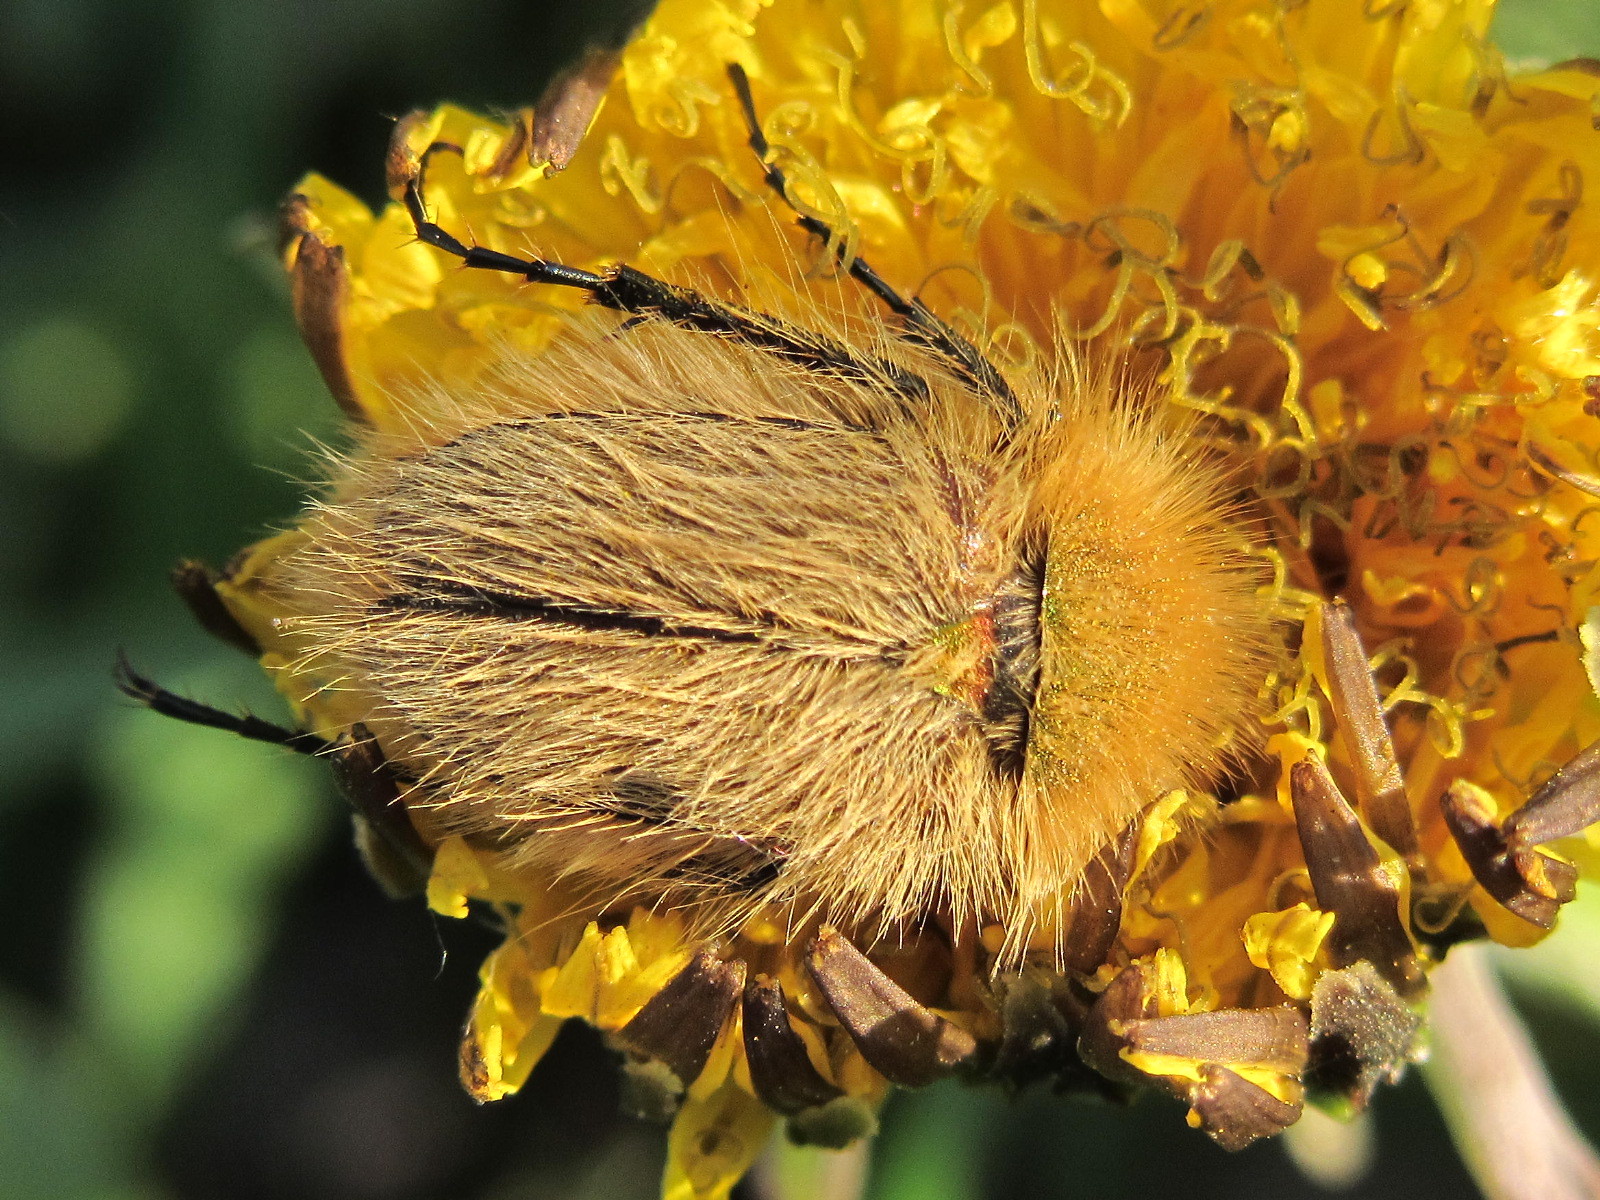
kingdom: Animalia
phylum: Arthropoda
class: Insecta
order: Coleoptera
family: Glaphyridae
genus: Pygopleurus
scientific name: Pygopleurus vulpes
